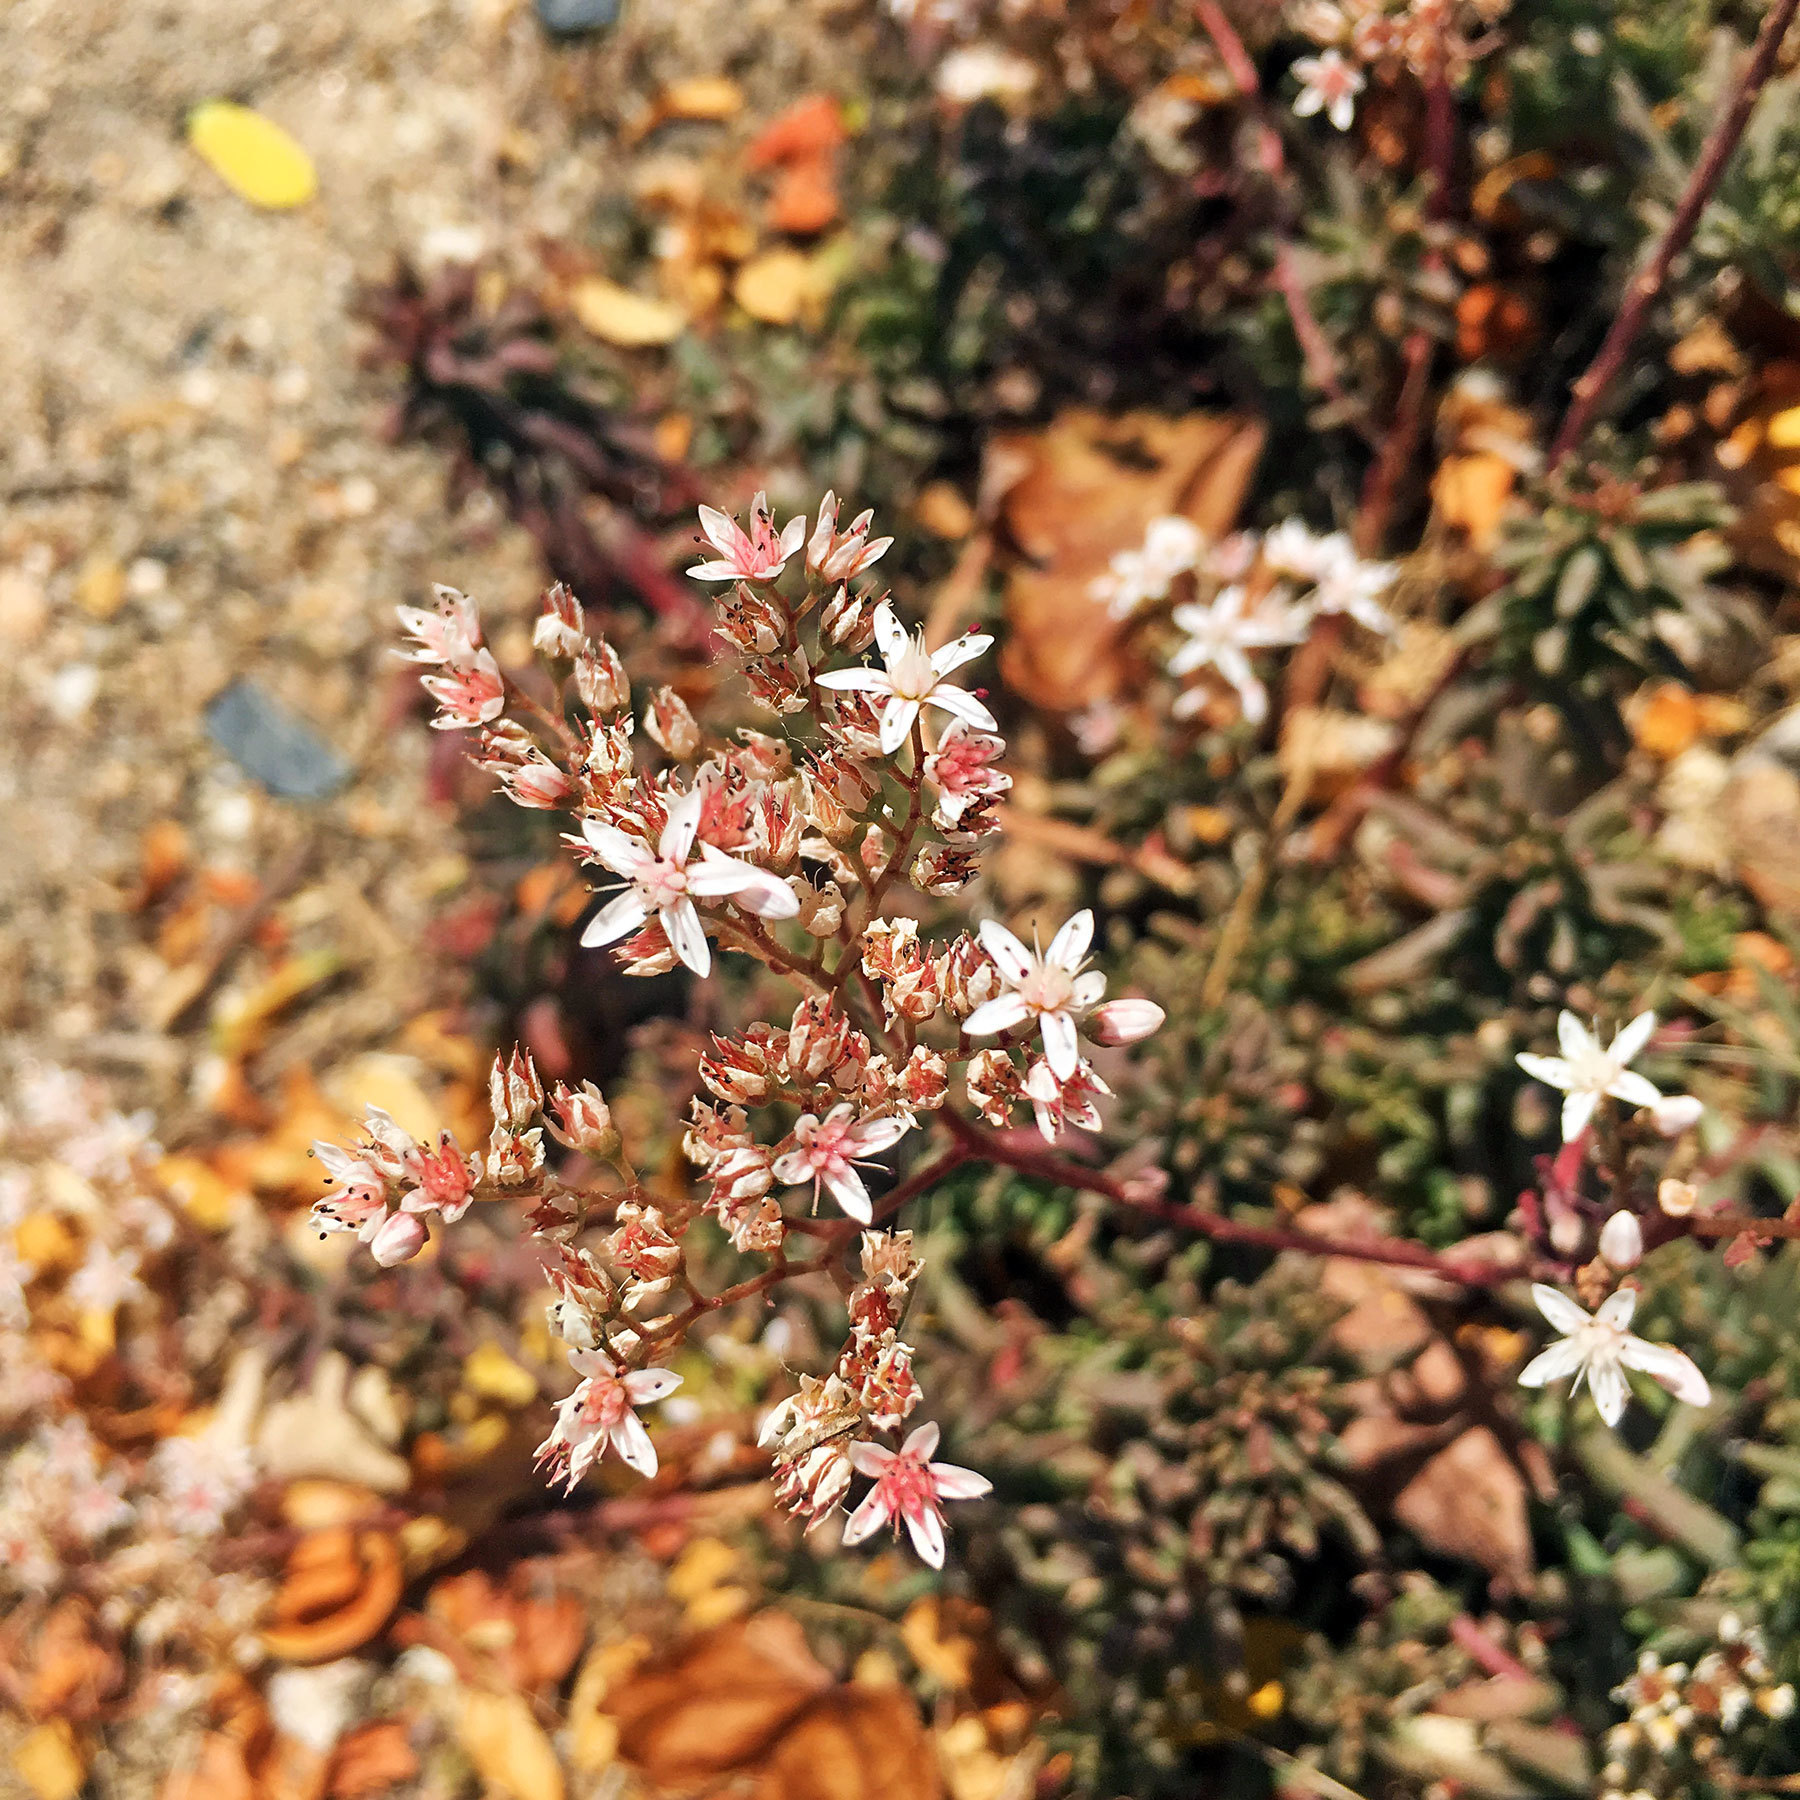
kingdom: Plantae
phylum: Tracheophyta
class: Magnoliopsida
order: Saxifragales
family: Crassulaceae
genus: Sedum
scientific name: Sedum album
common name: White stonecrop
